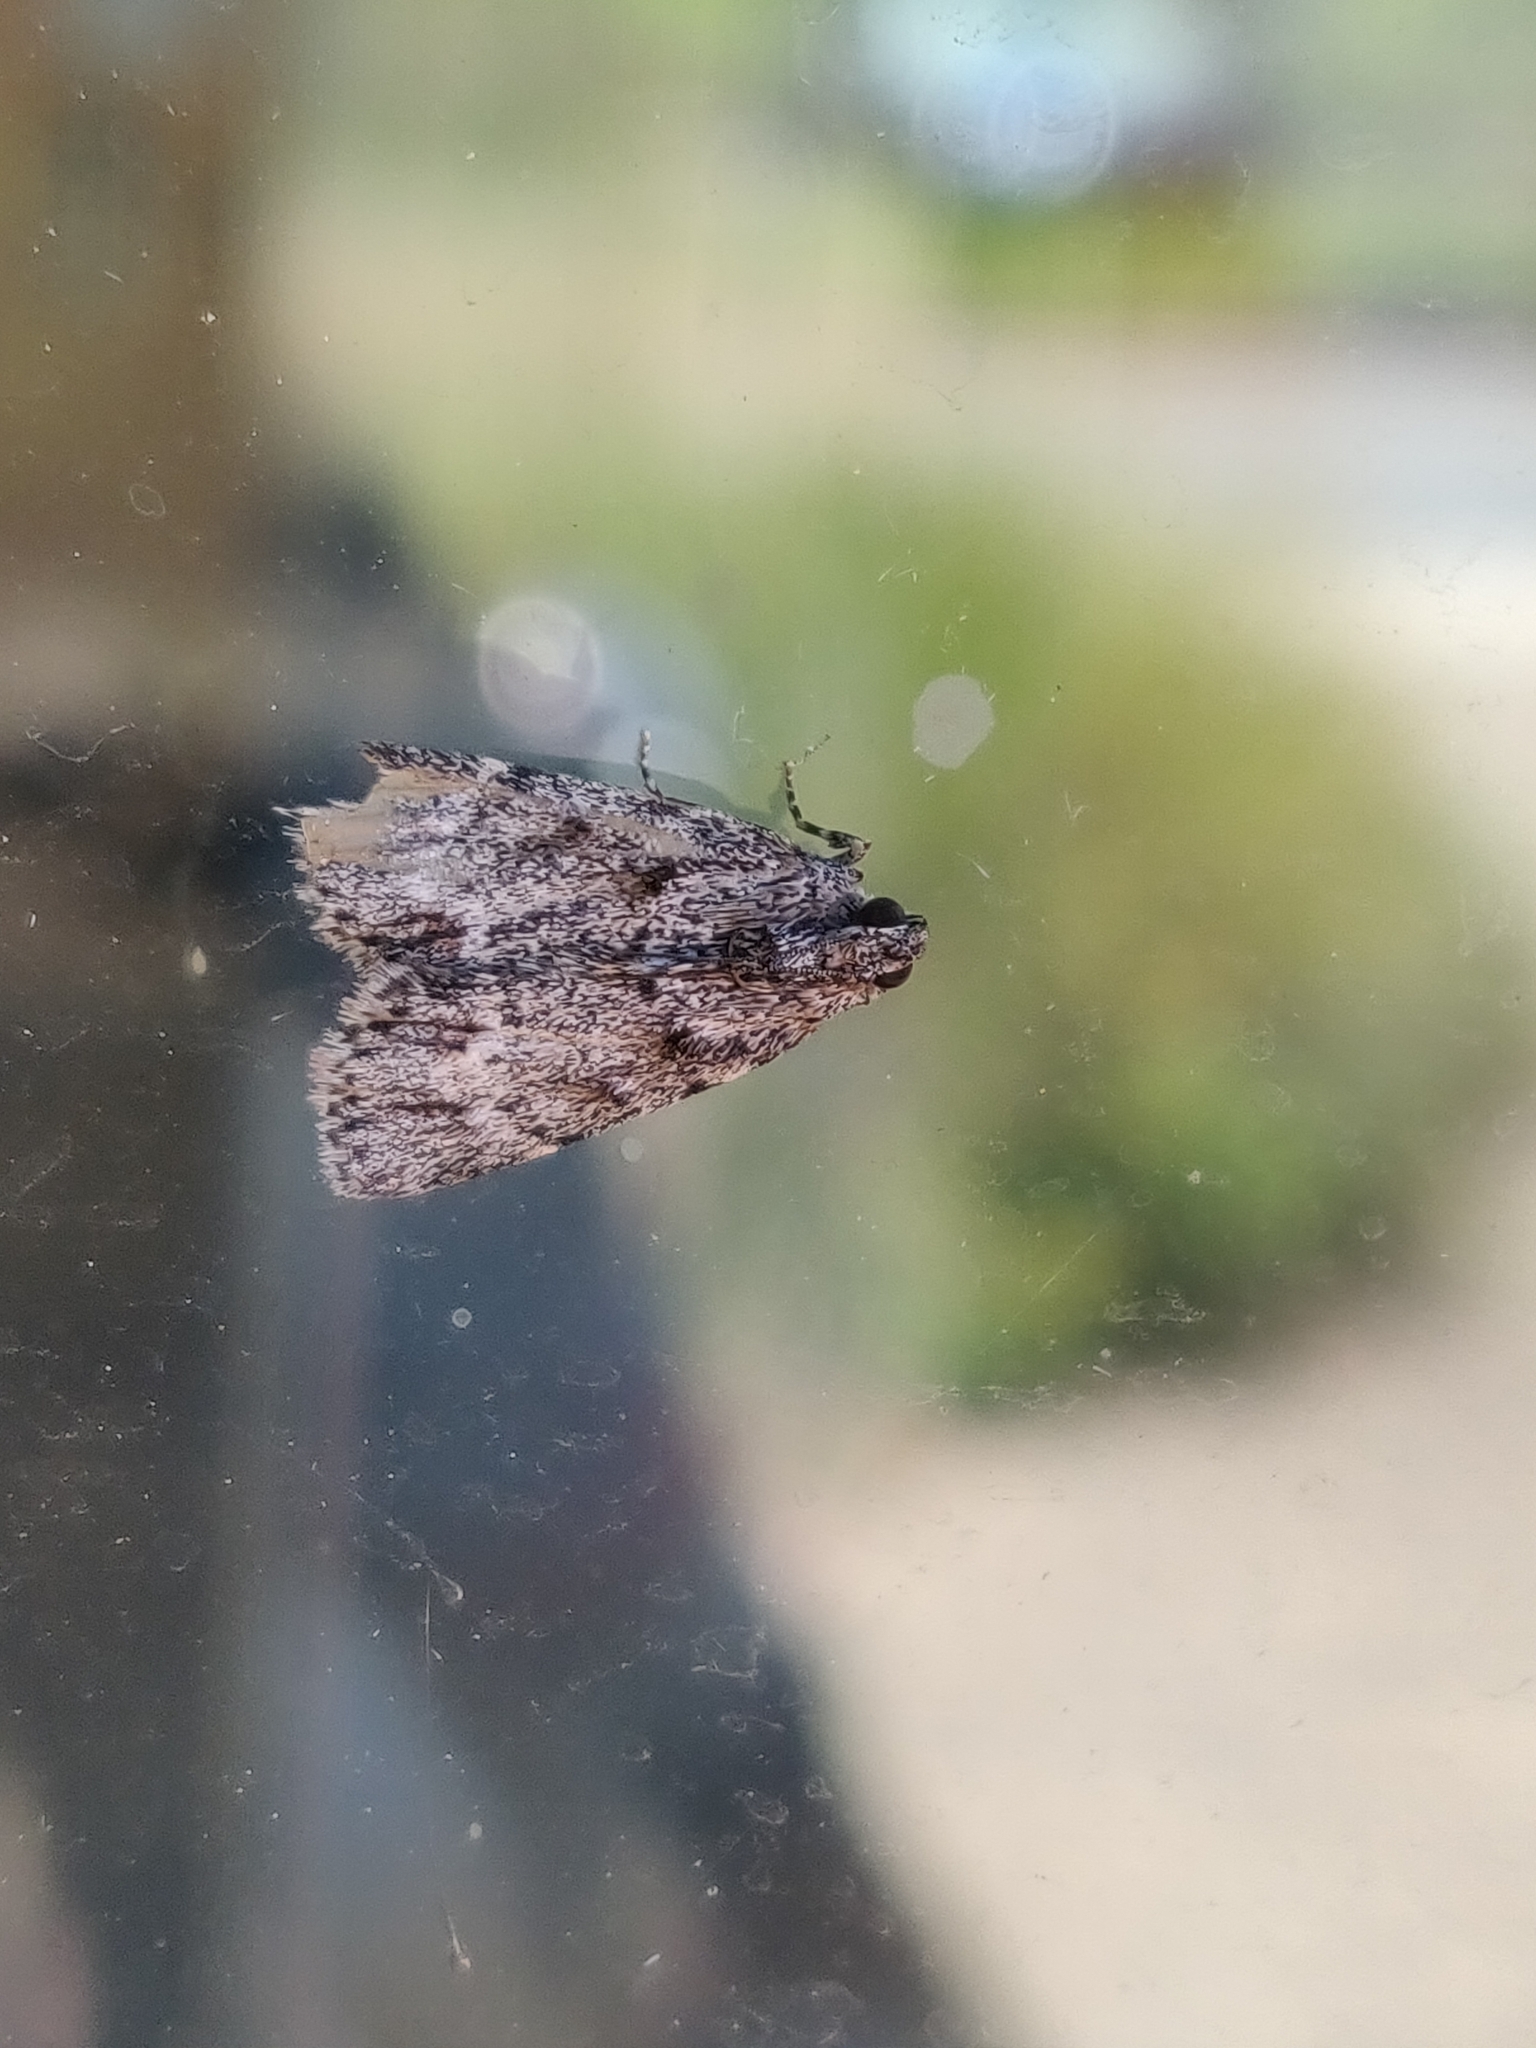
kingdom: Animalia
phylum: Arthropoda
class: Insecta
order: Lepidoptera
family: Pyralidae
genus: Spectrotrota
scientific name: Spectrotrota fimbrialis
